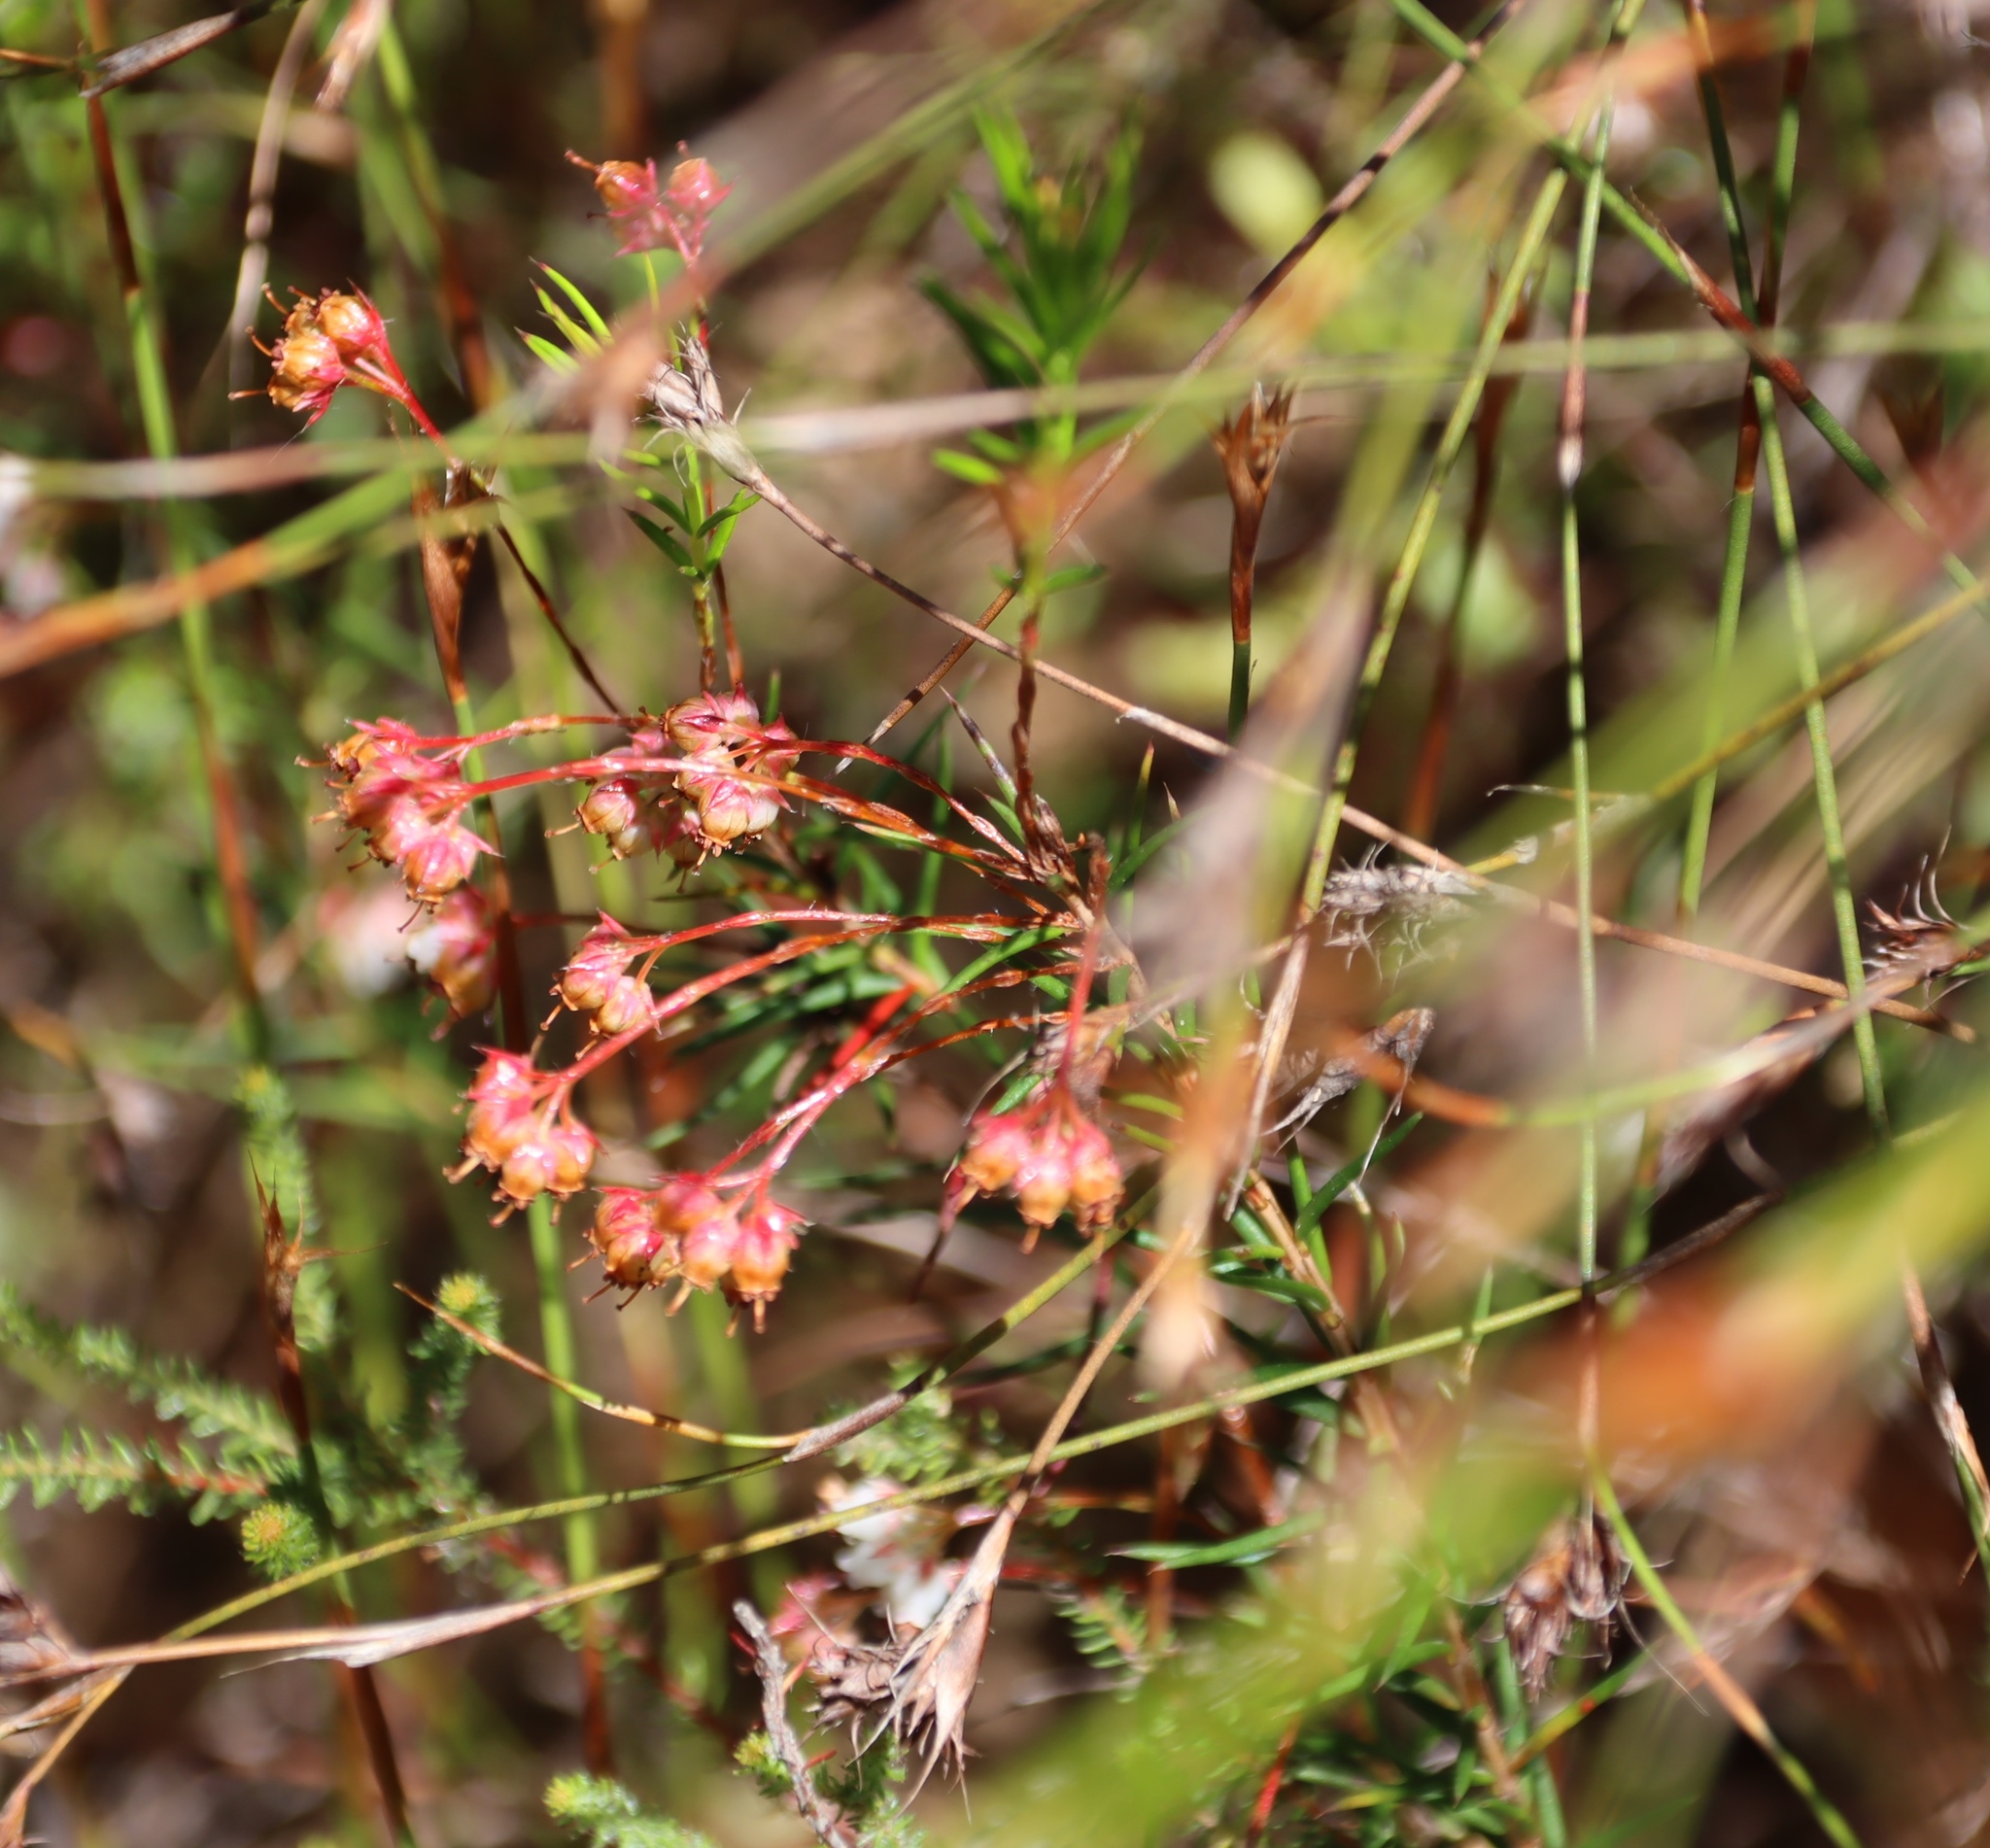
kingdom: Plantae
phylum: Tracheophyta
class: Magnoliopsida
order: Ericales
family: Ericaceae
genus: Erica
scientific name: Erica polifolia
